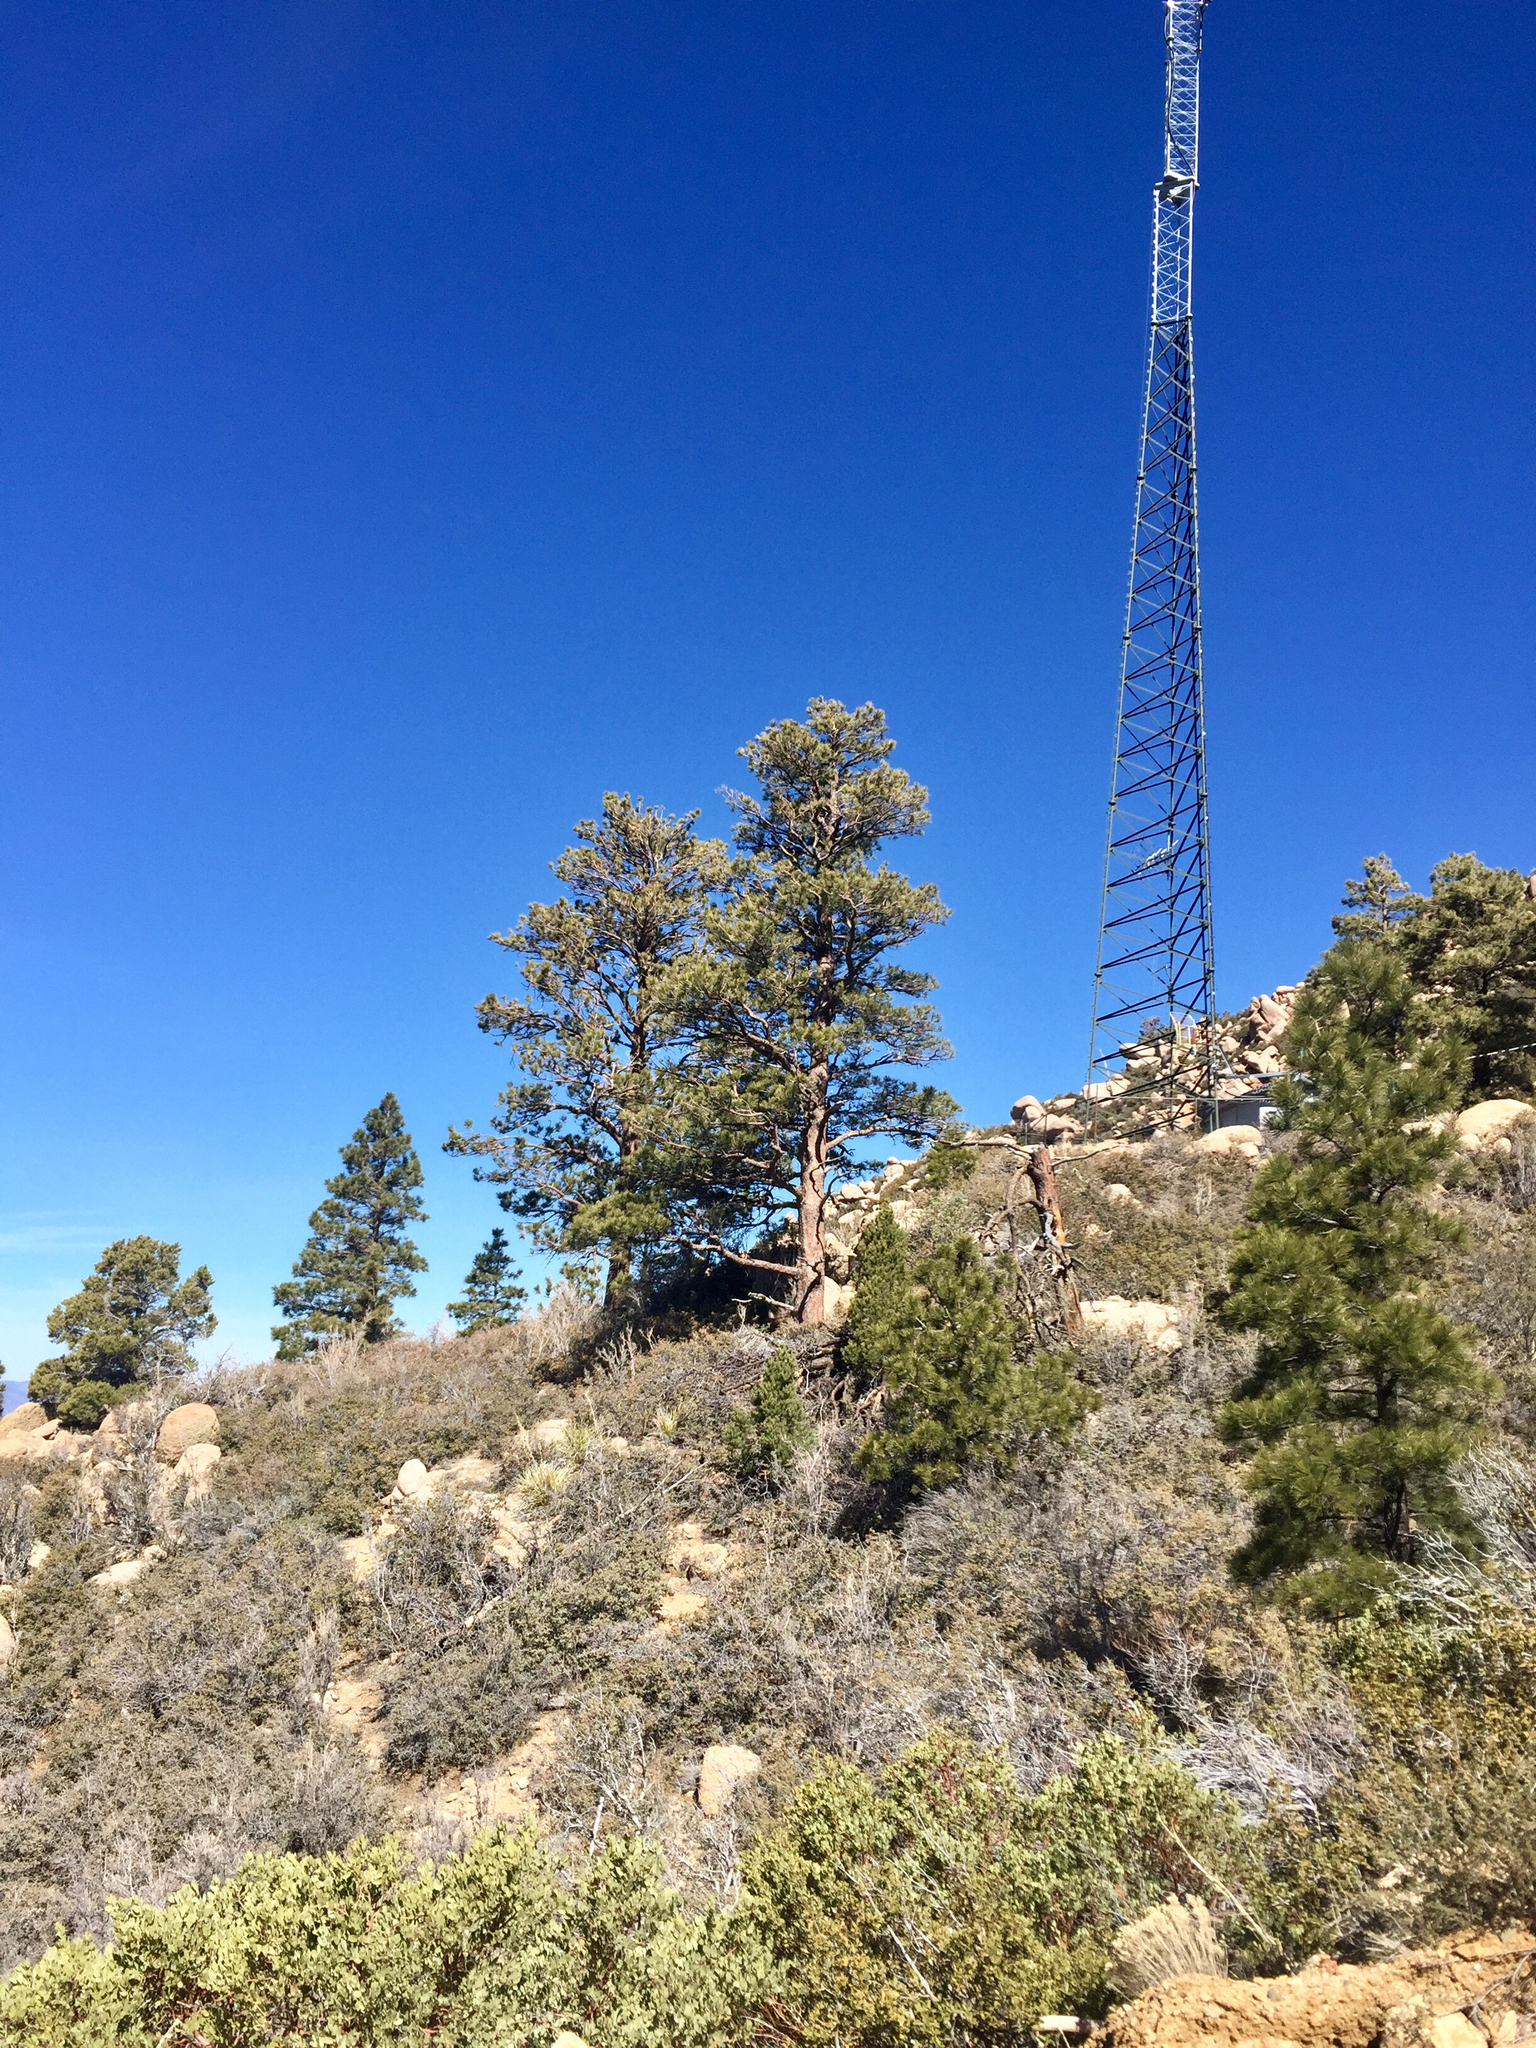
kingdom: Plantae
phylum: Tracheophyta
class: Pinopsida
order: Pinales
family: Pinaceae
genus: Pinus
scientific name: Pinus ponderosa
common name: Western yellow-pine
